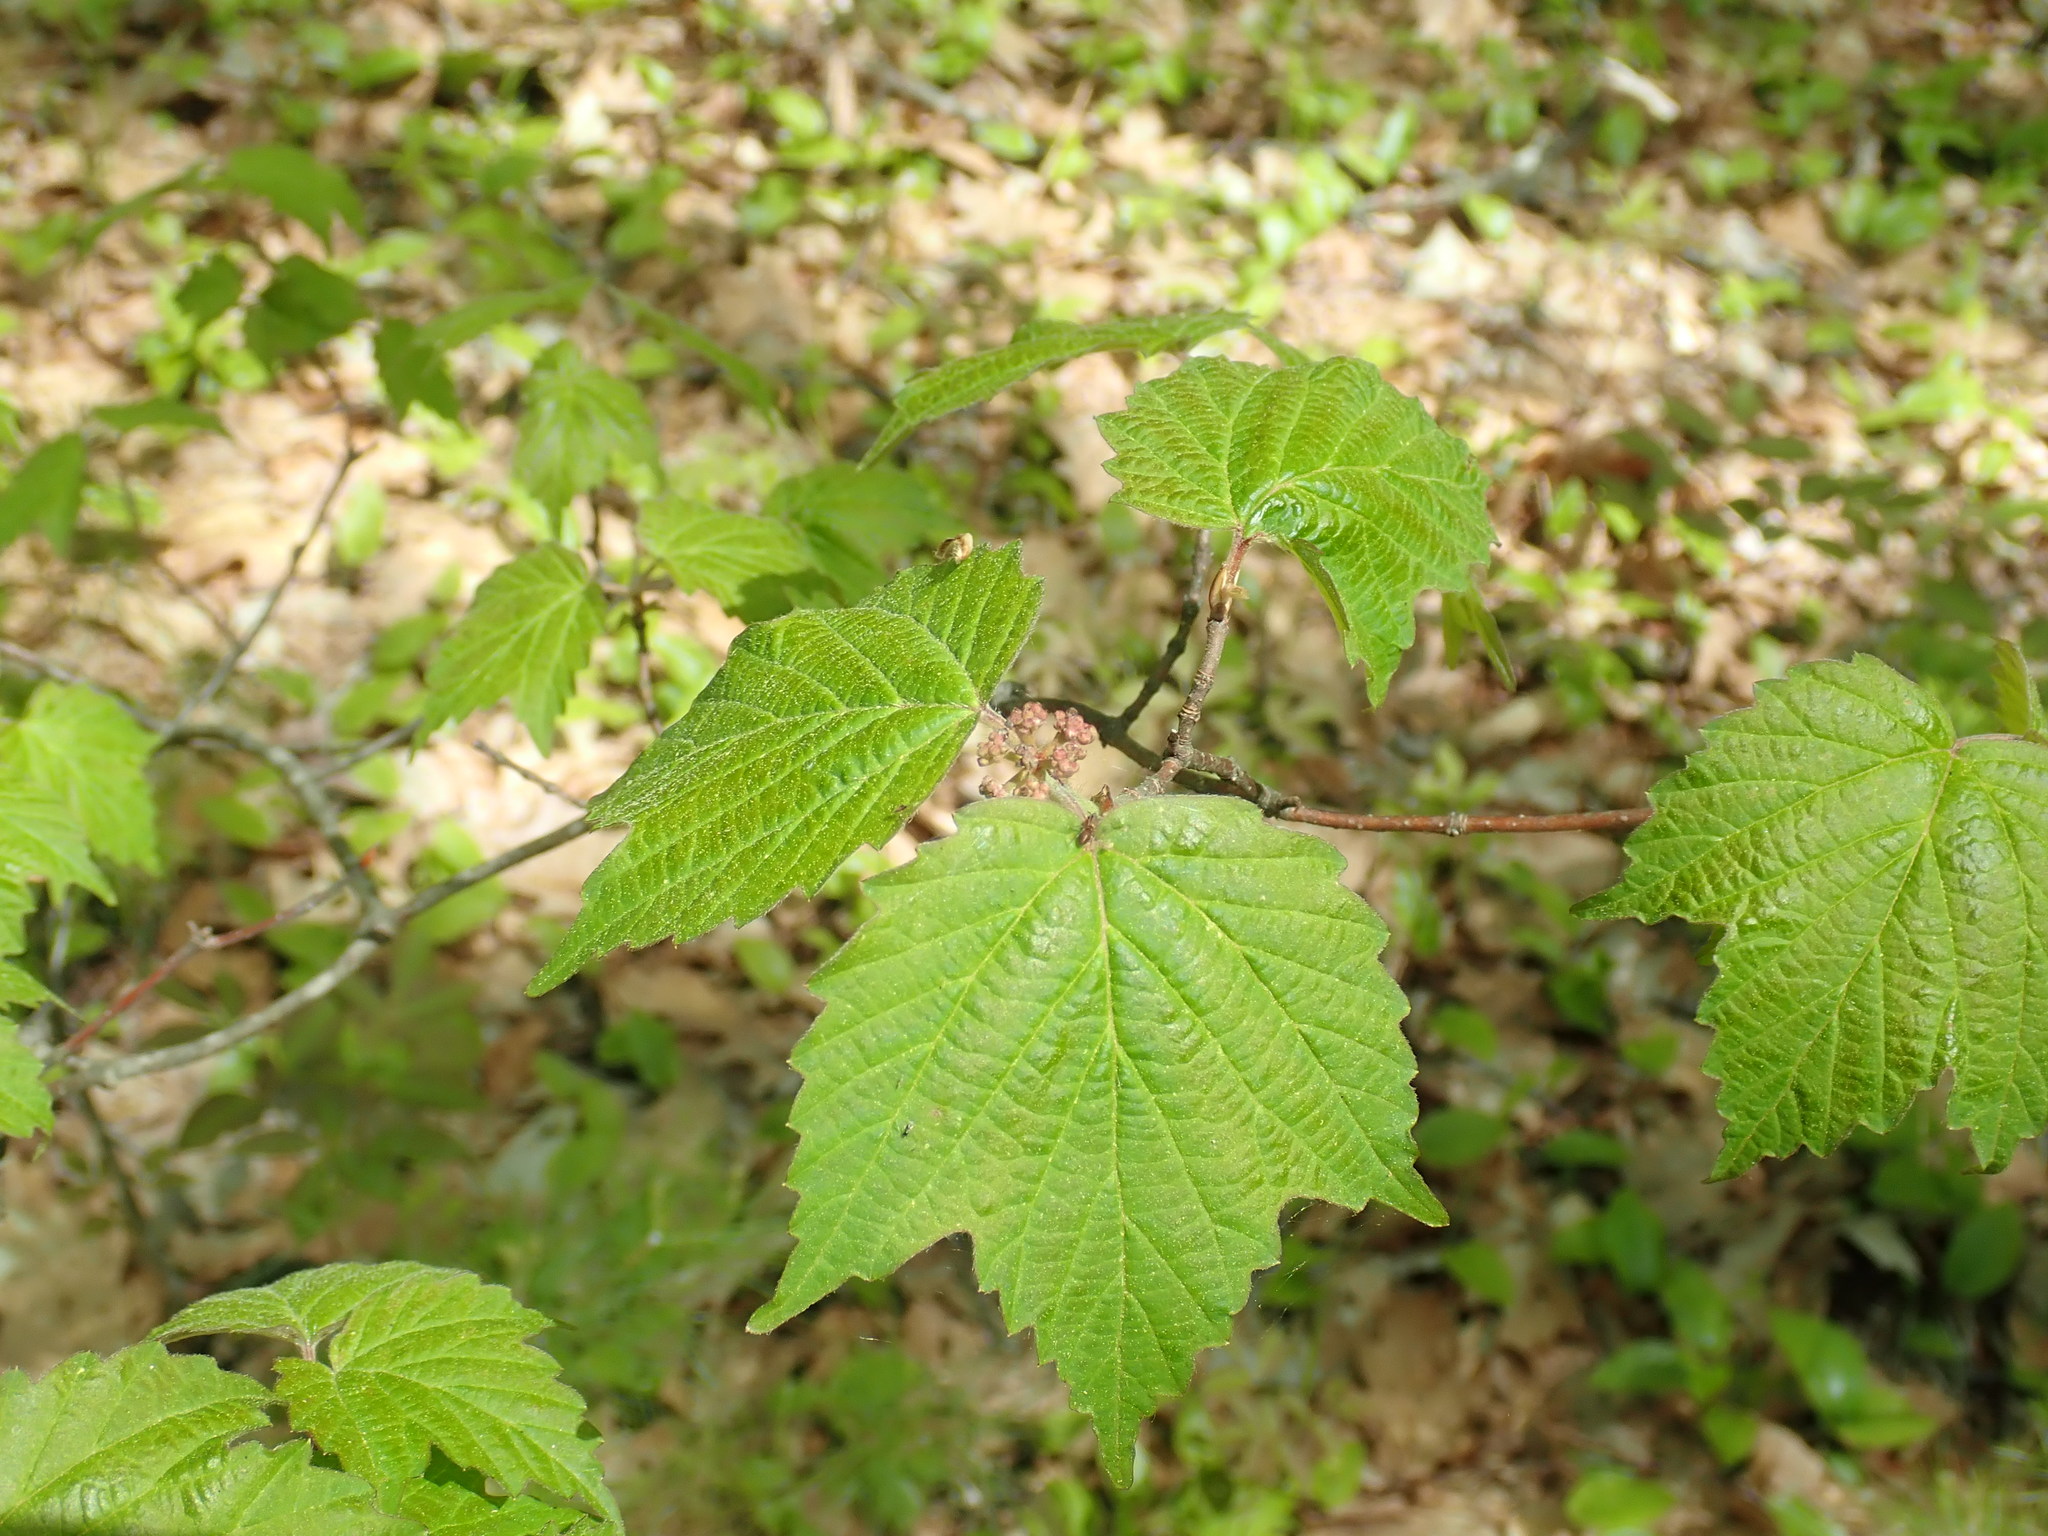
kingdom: Plantae
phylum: Tracheophyta
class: Magnoliopsida
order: Dipsacales
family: Viburnaceae
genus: Viburnum
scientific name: Viburnum acerifolium
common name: Dockmackie
